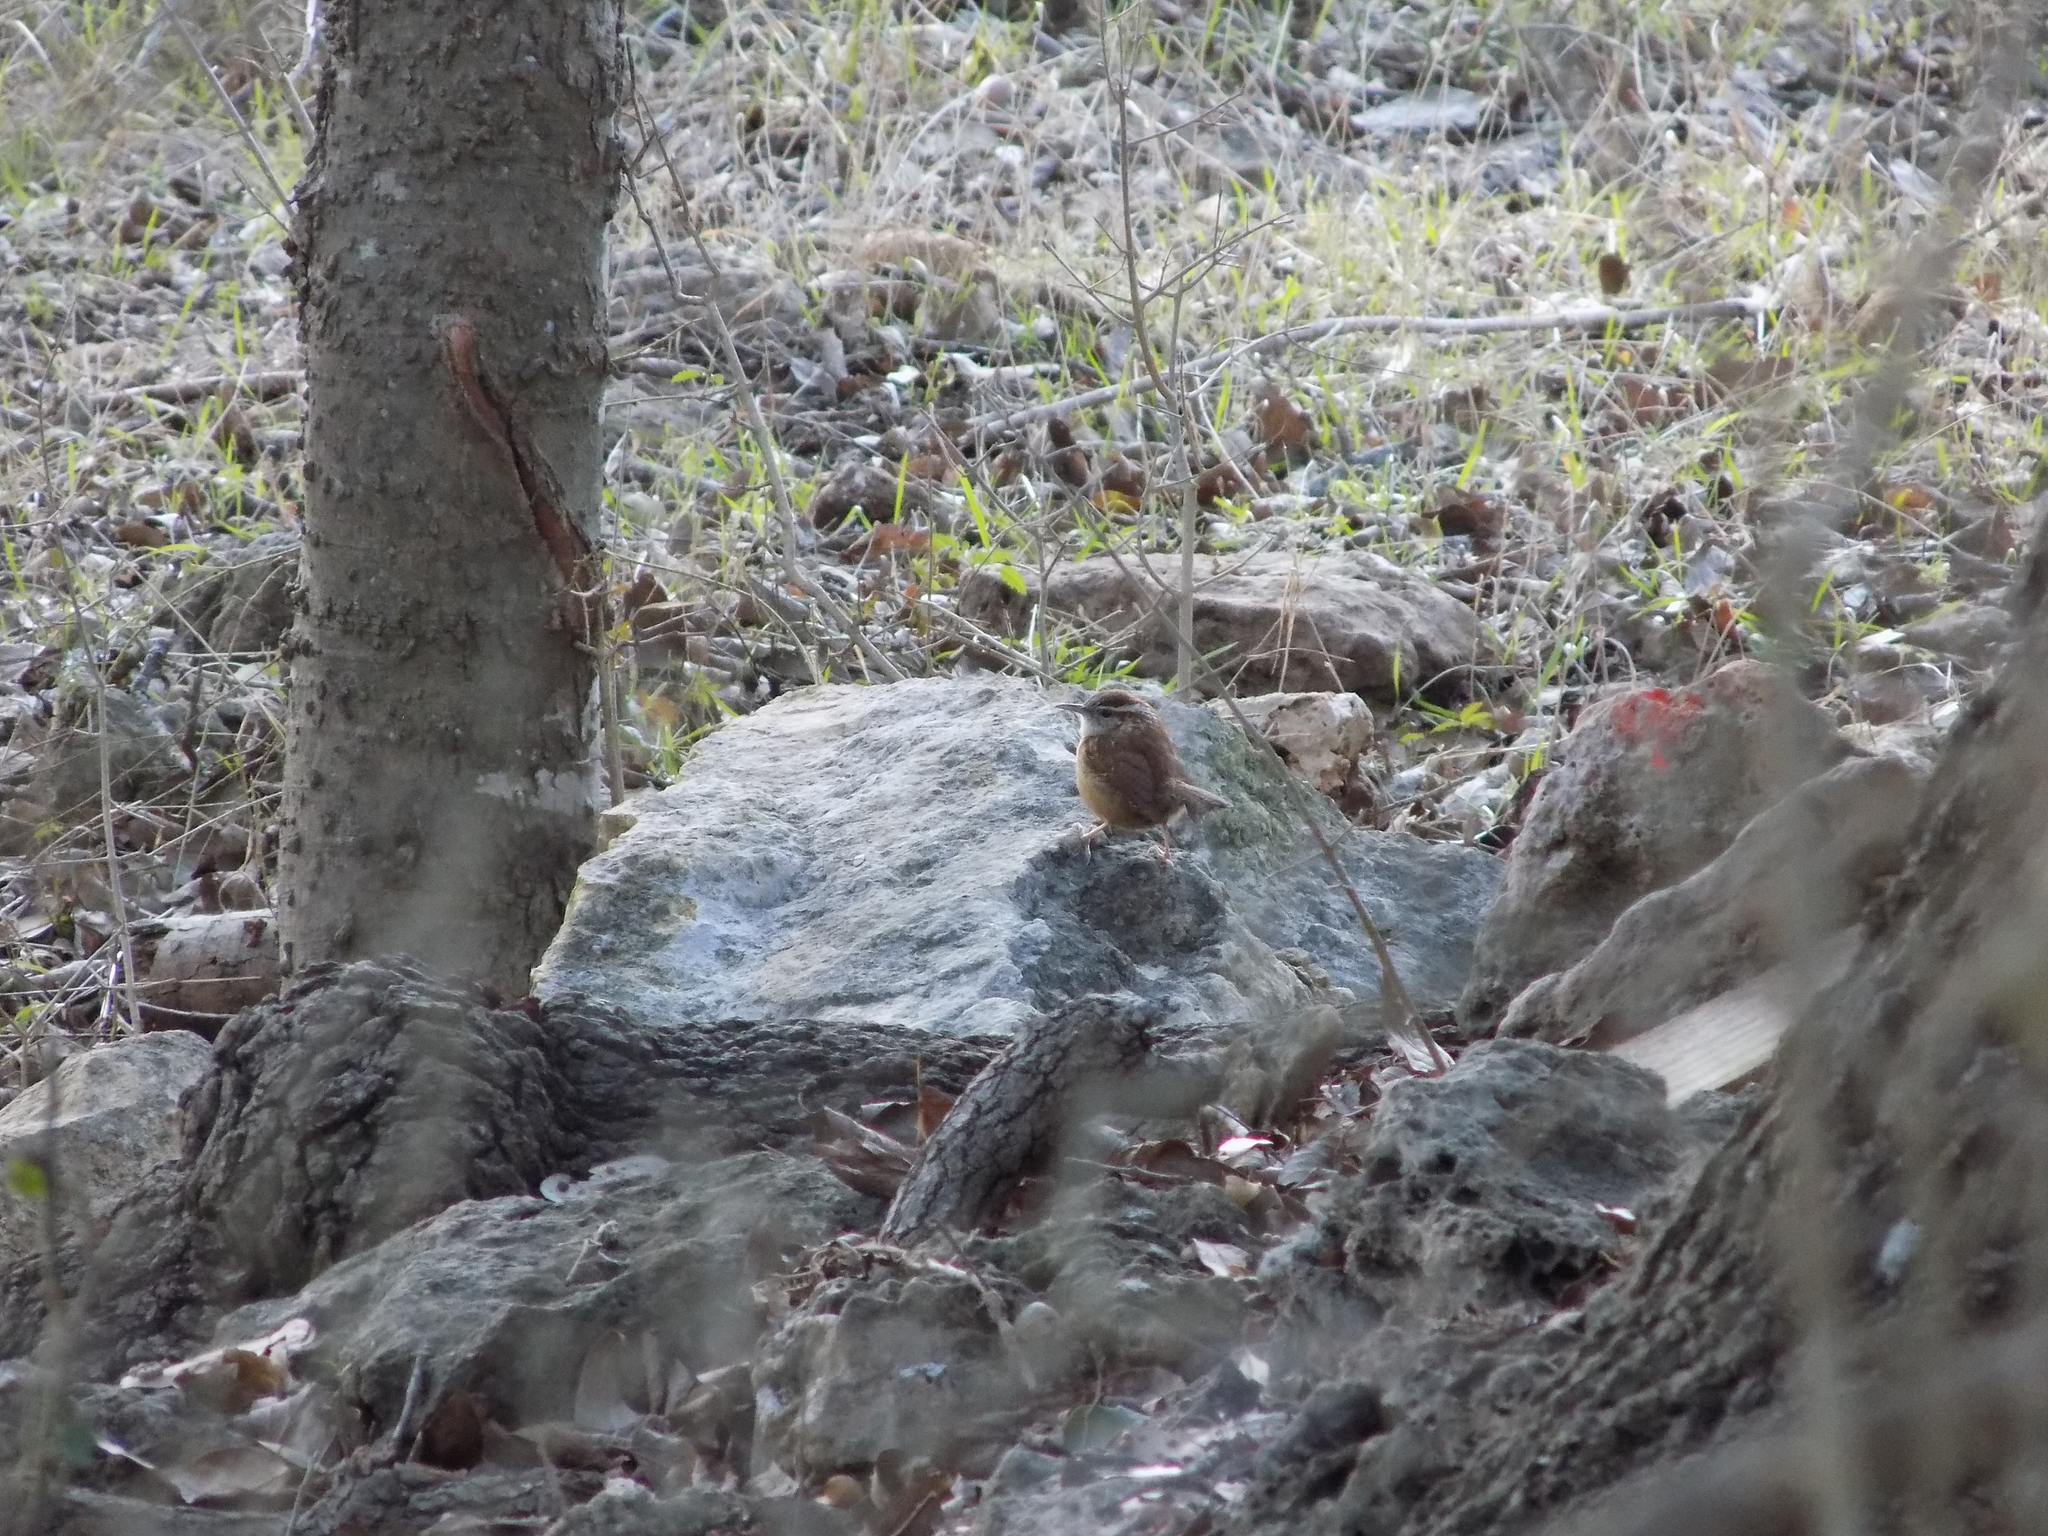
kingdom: Animalia
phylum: Chordata
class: Aves
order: Passeriformes
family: Troglodytidae
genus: Thryothorus
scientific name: Thryothorus ludovicianus
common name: Carolina wren
